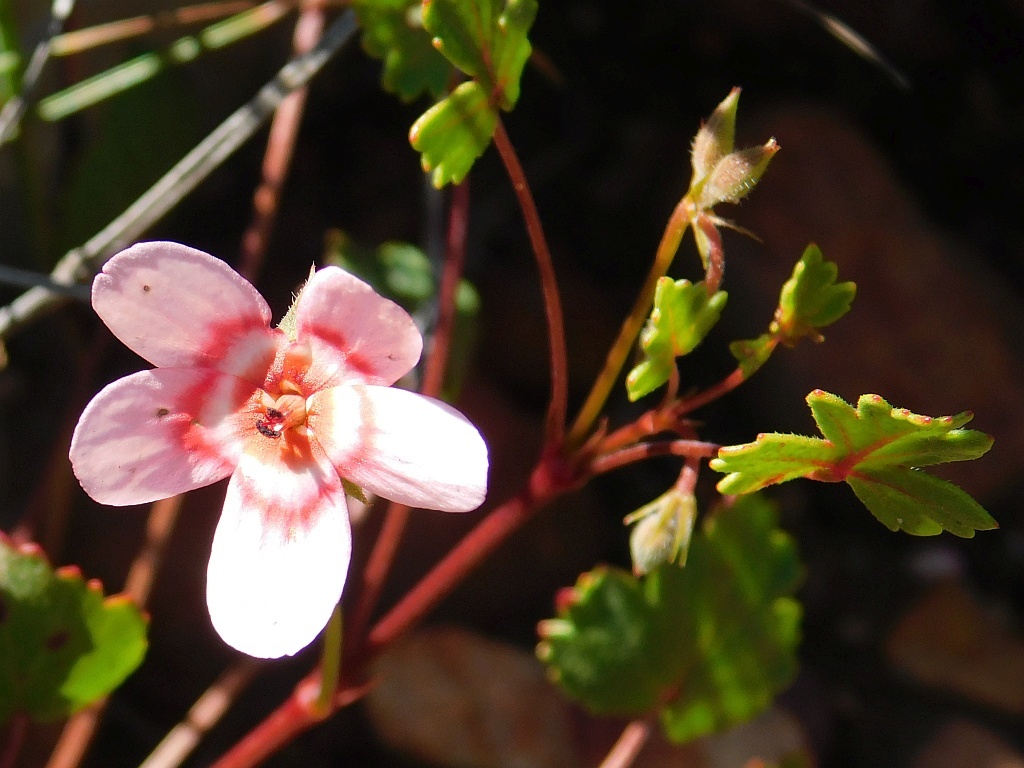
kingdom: Plantae
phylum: Tracheophyta
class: Magnoliopsida
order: Geraniales
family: Geraniaceae
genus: Pelargonium
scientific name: Pelargonium incarnatum
